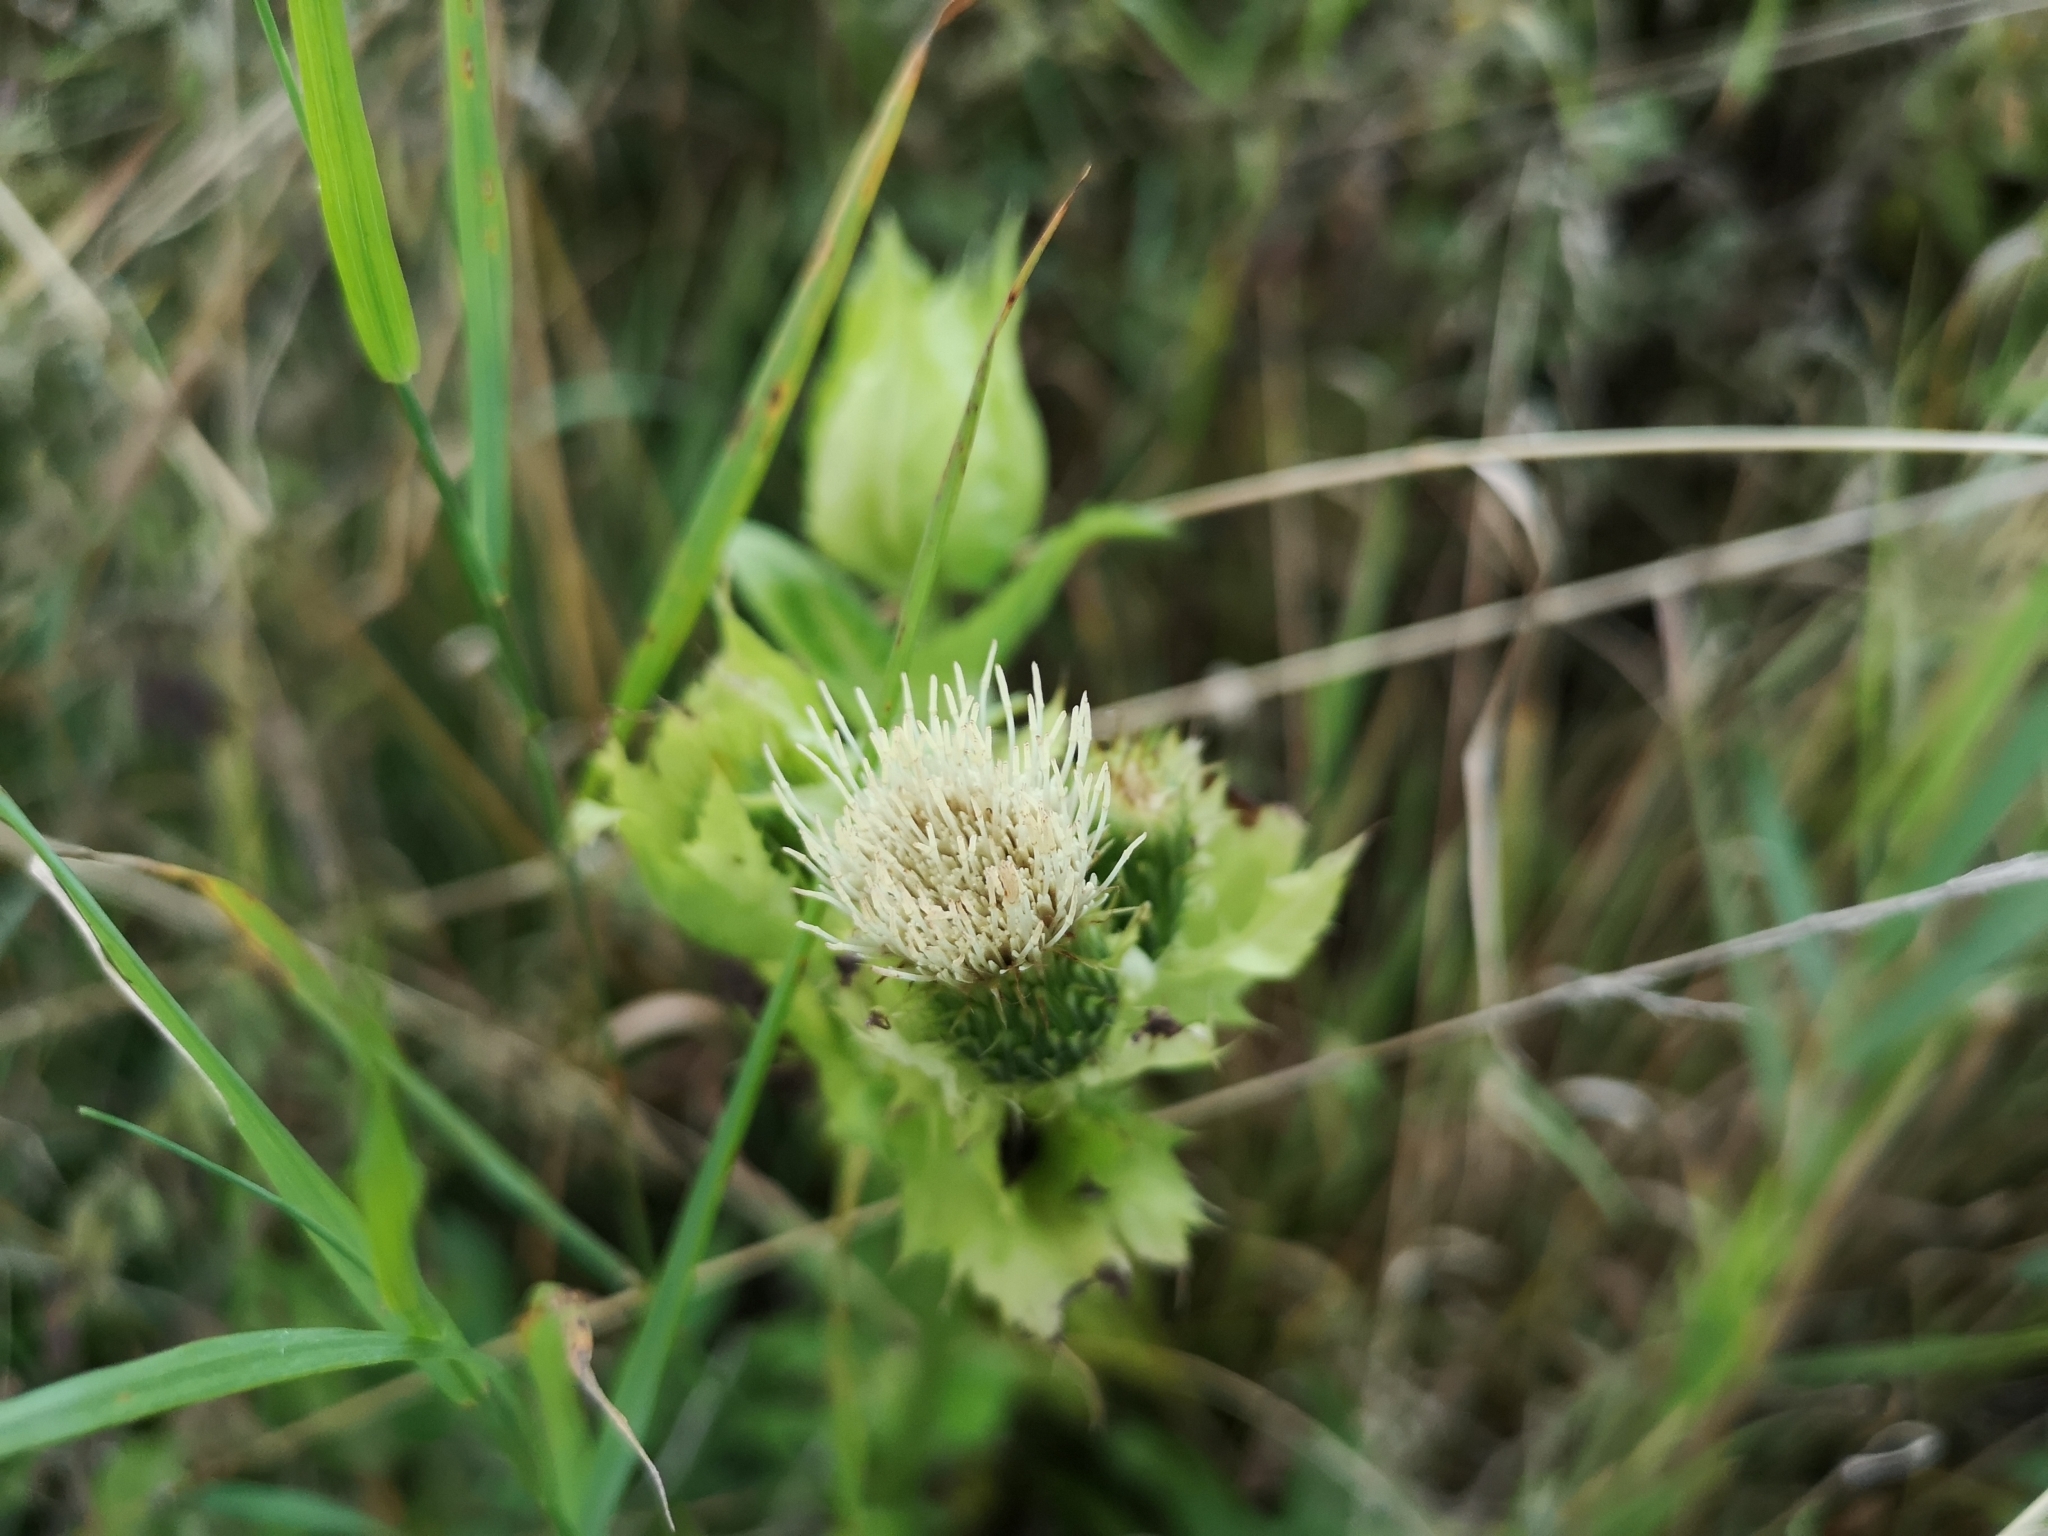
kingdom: Plantae
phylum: Tracheophyta
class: Magnoliopsida
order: Asterales
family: Asteraceae
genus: Cirsium
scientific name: Cirsium oleraceum
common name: Cabbage thistle
